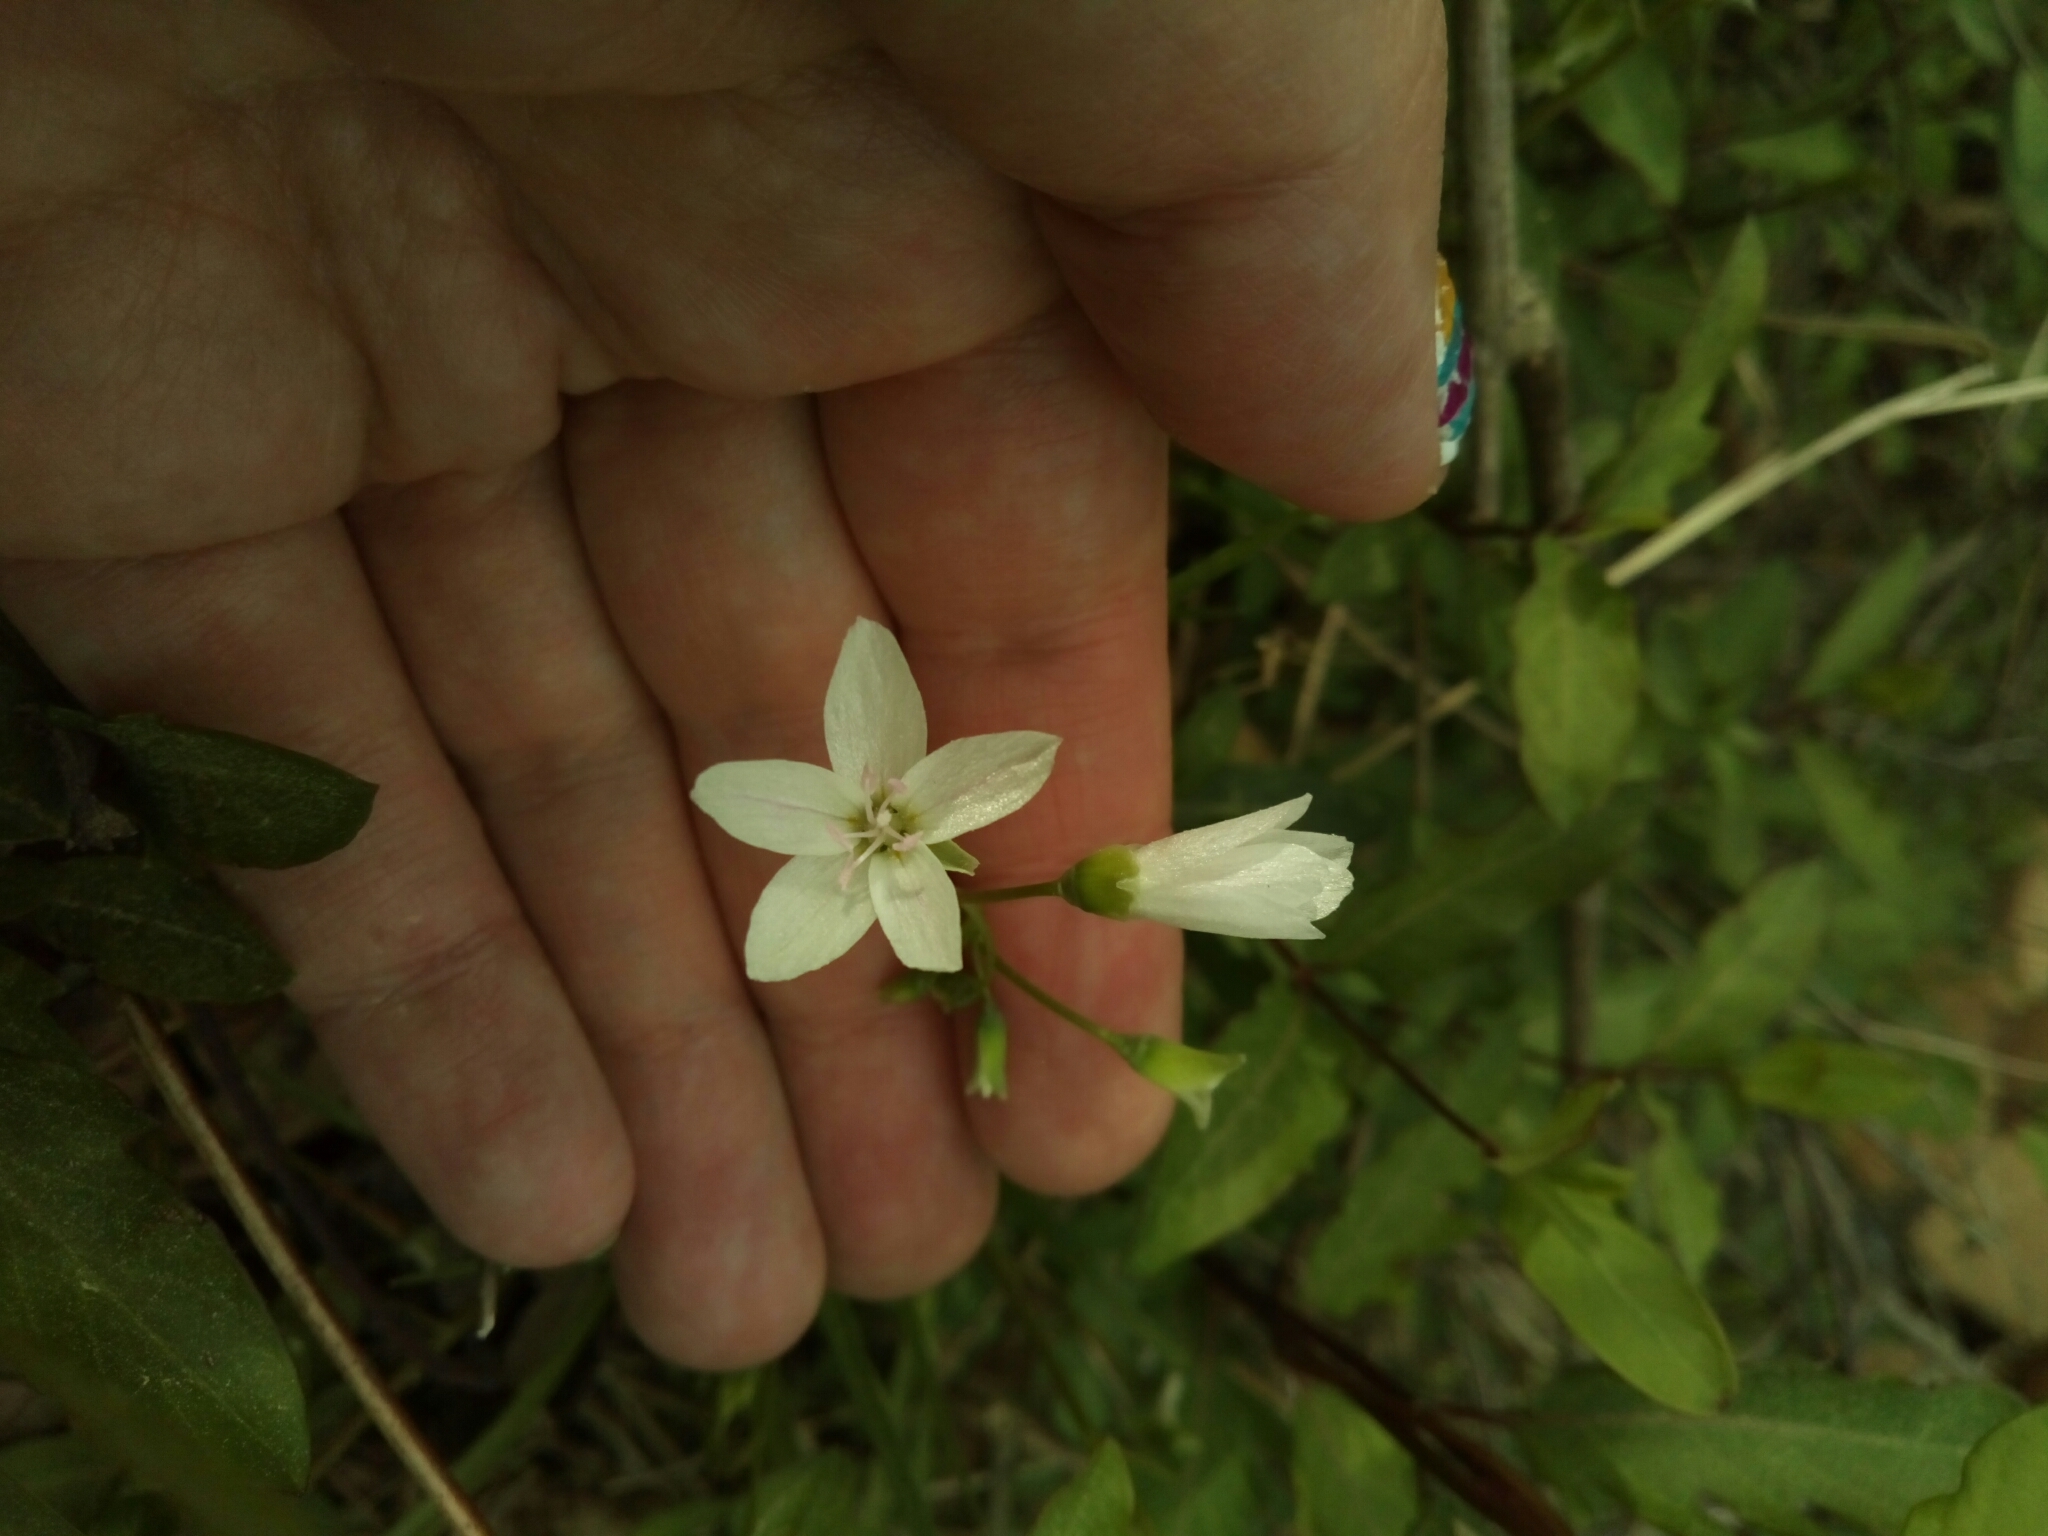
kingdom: Plantae
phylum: Tracheophyta
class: Magnoliopsida
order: Caryophyllales
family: Montiaceae
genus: Claytonia
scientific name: Claytonia virginica
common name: Virginia springbeauty
